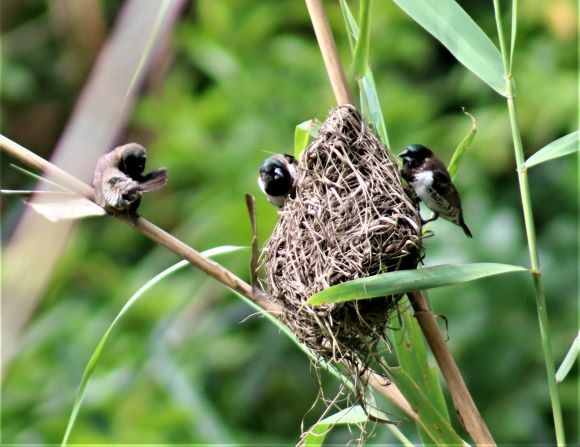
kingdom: Animalia
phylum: Chordata
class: Aves
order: Passeriformes
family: Estrildidae
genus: Lonchura
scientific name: Lonchura cucullata
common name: Bronze mannikin
